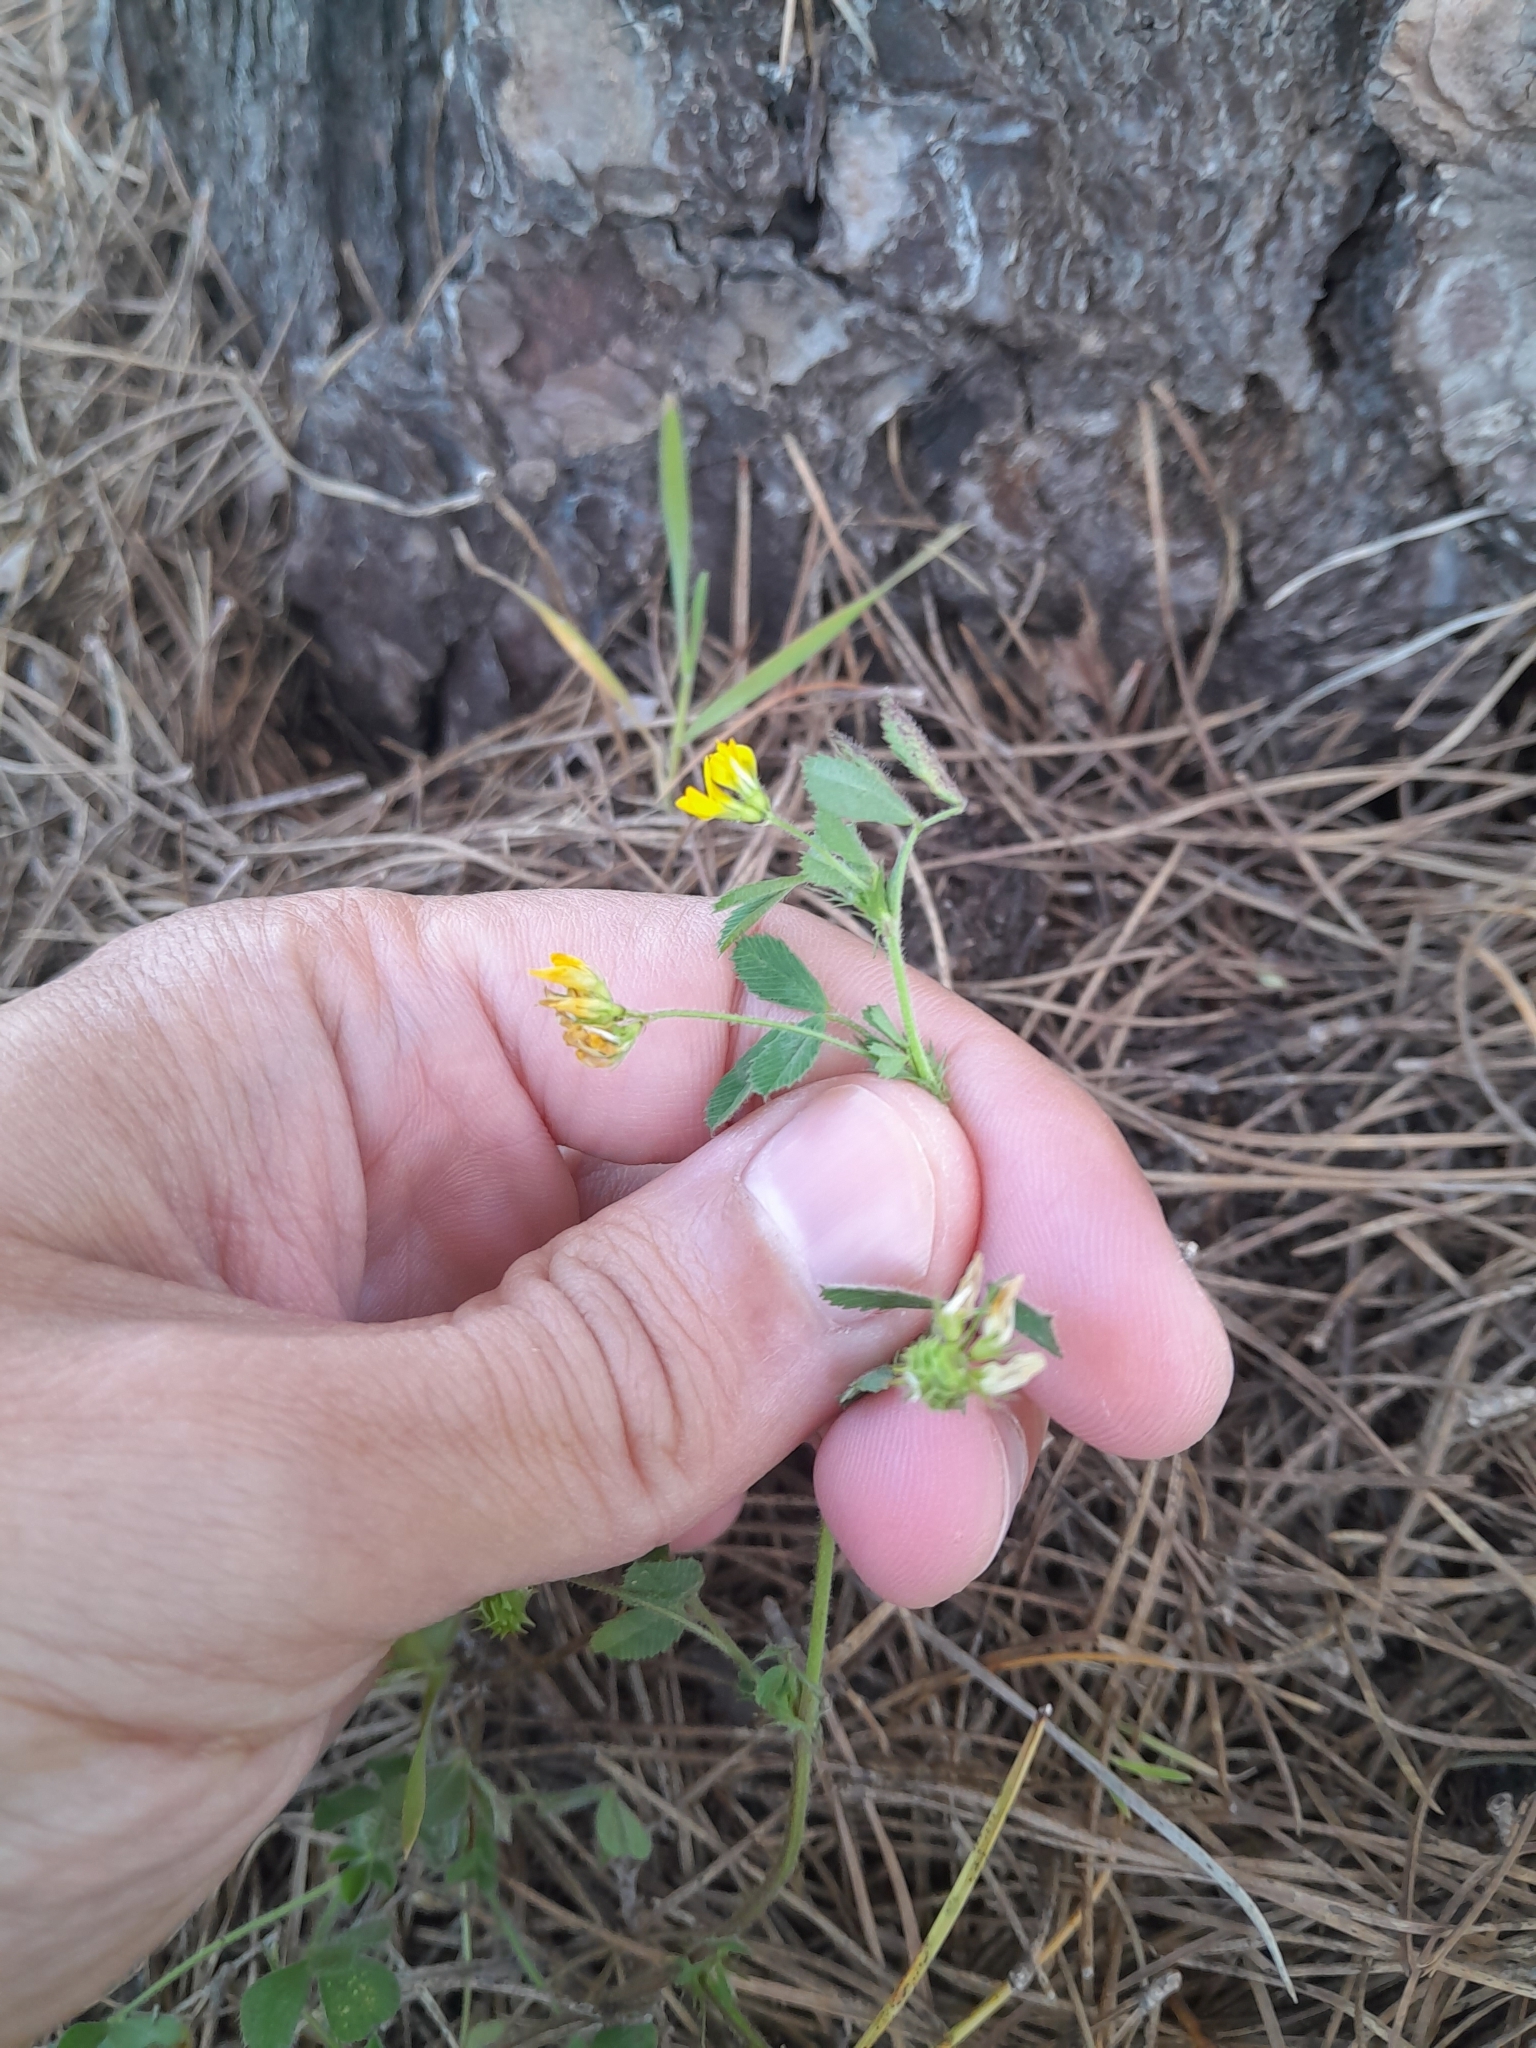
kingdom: Plantae
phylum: Tracheophyta
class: Magnoliopsida
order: Fabales
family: Fabaceae
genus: Medicago
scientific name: Medicago tornata
